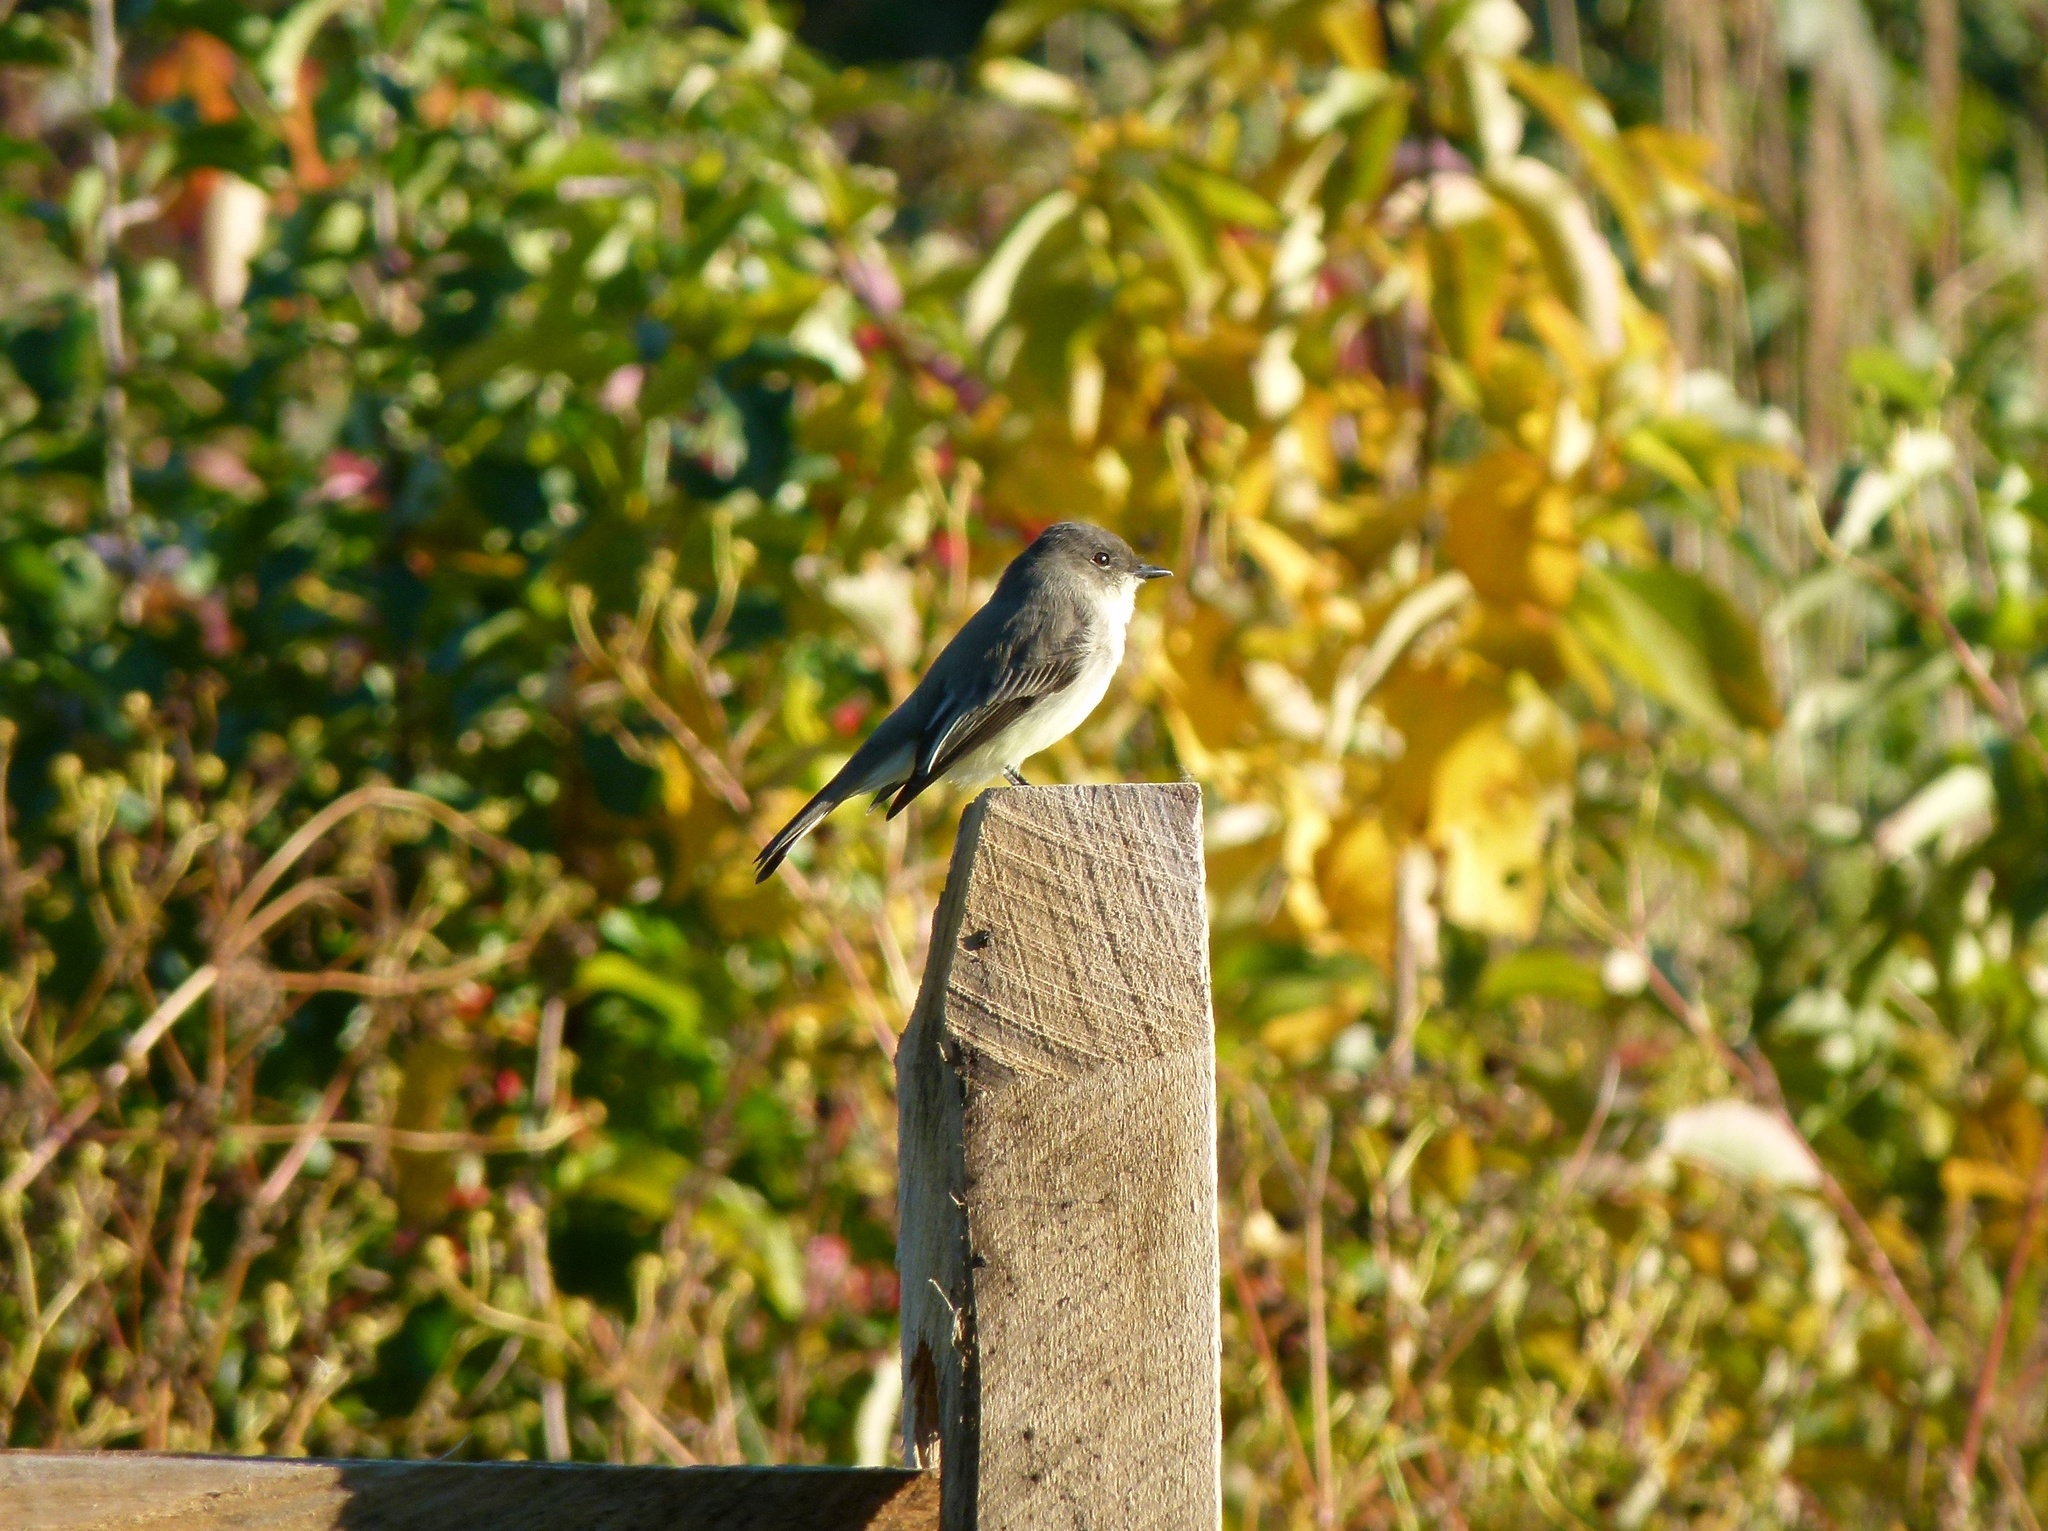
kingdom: Animalia
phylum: Chordata
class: Aves
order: Passeriformes
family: Tyrannidae
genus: Sayornis
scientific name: Sayornis phoebe
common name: Eastern phoebe
